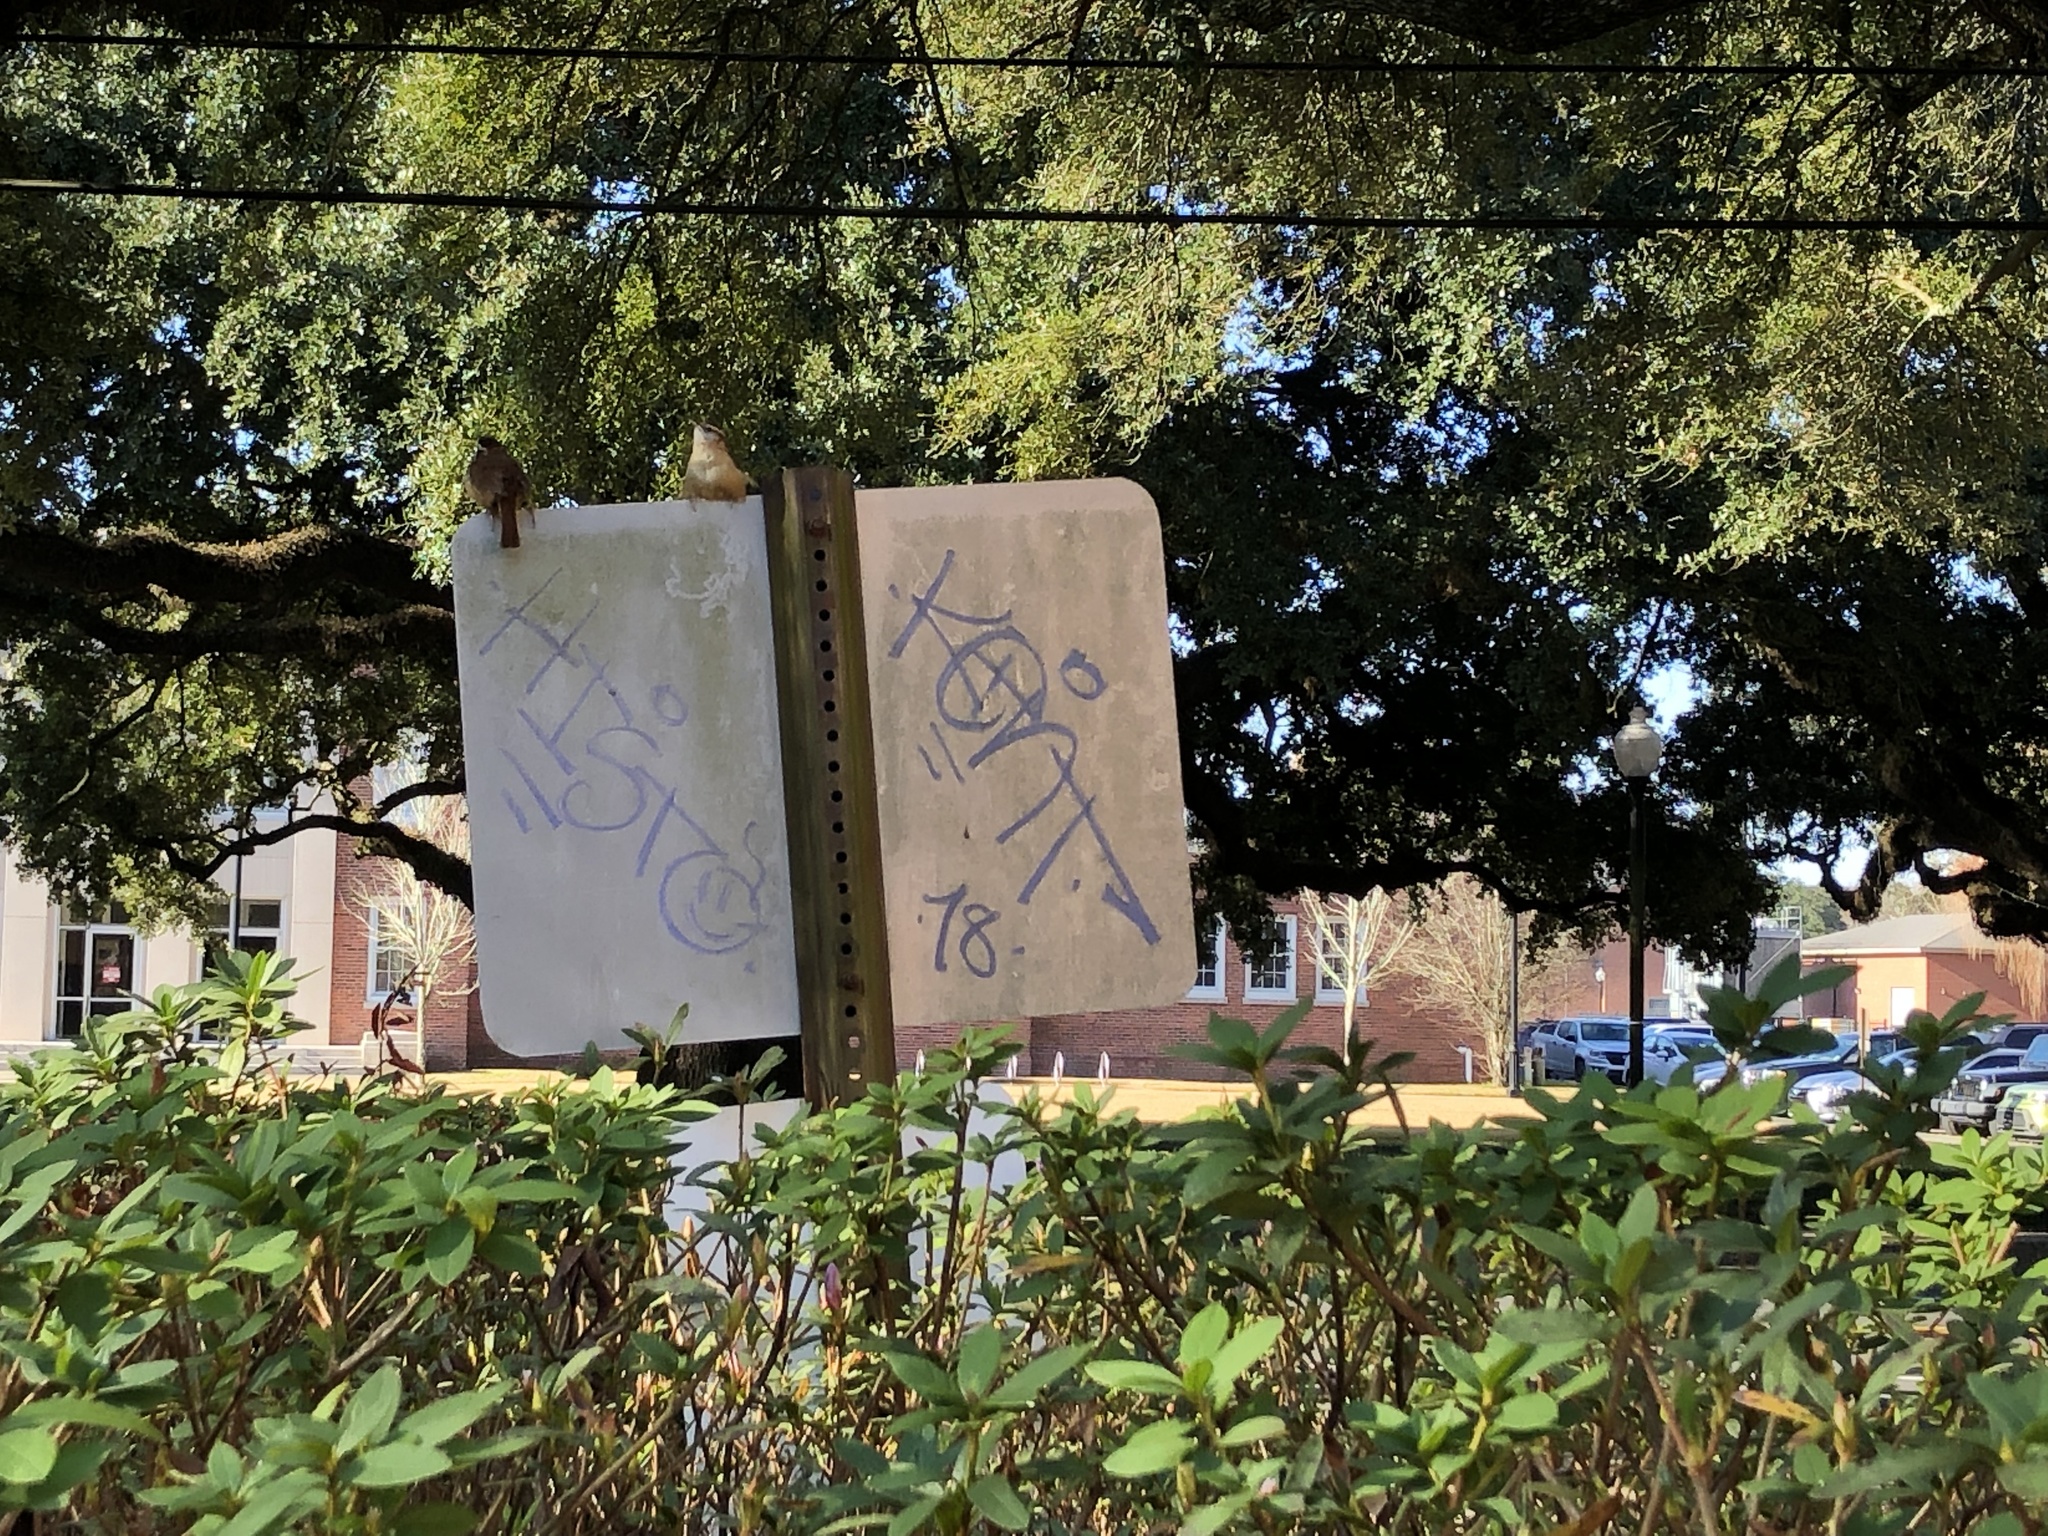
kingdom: Animalia
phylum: Chordata
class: Aves
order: Passeriformes
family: Troglodytidae
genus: Thryothorus
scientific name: Thryothorus ludovicianus
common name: Carolina wren
